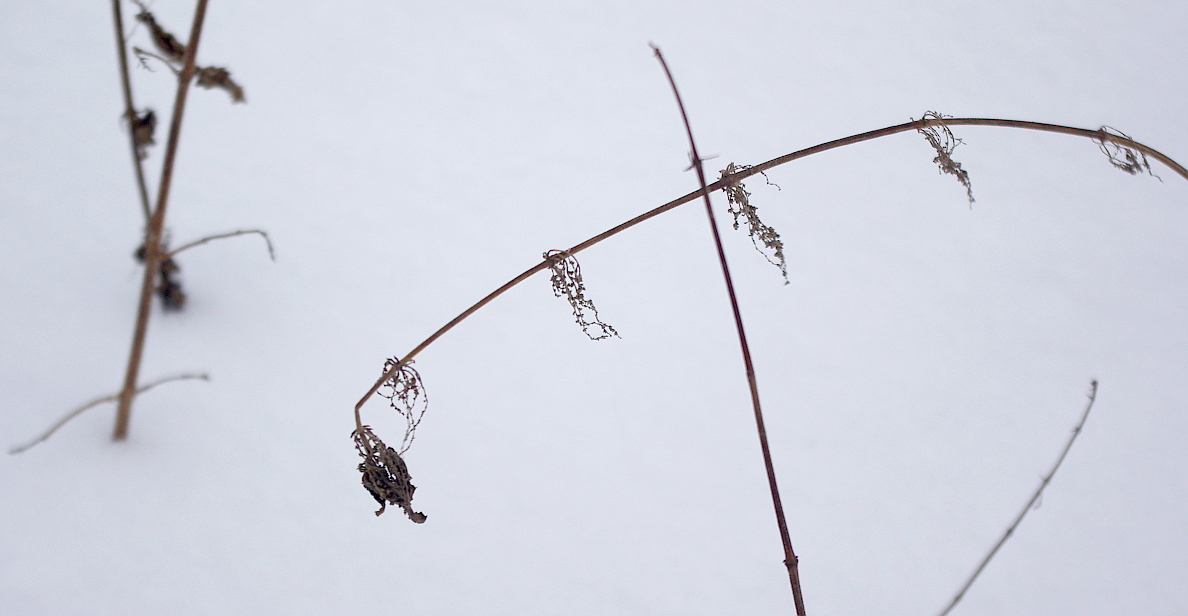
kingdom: Plantae
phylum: Tracheophyta
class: Magnoliopsida
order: Rosales
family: Urticaceae
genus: Urtica
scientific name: Urtica dioica
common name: Common nettle
